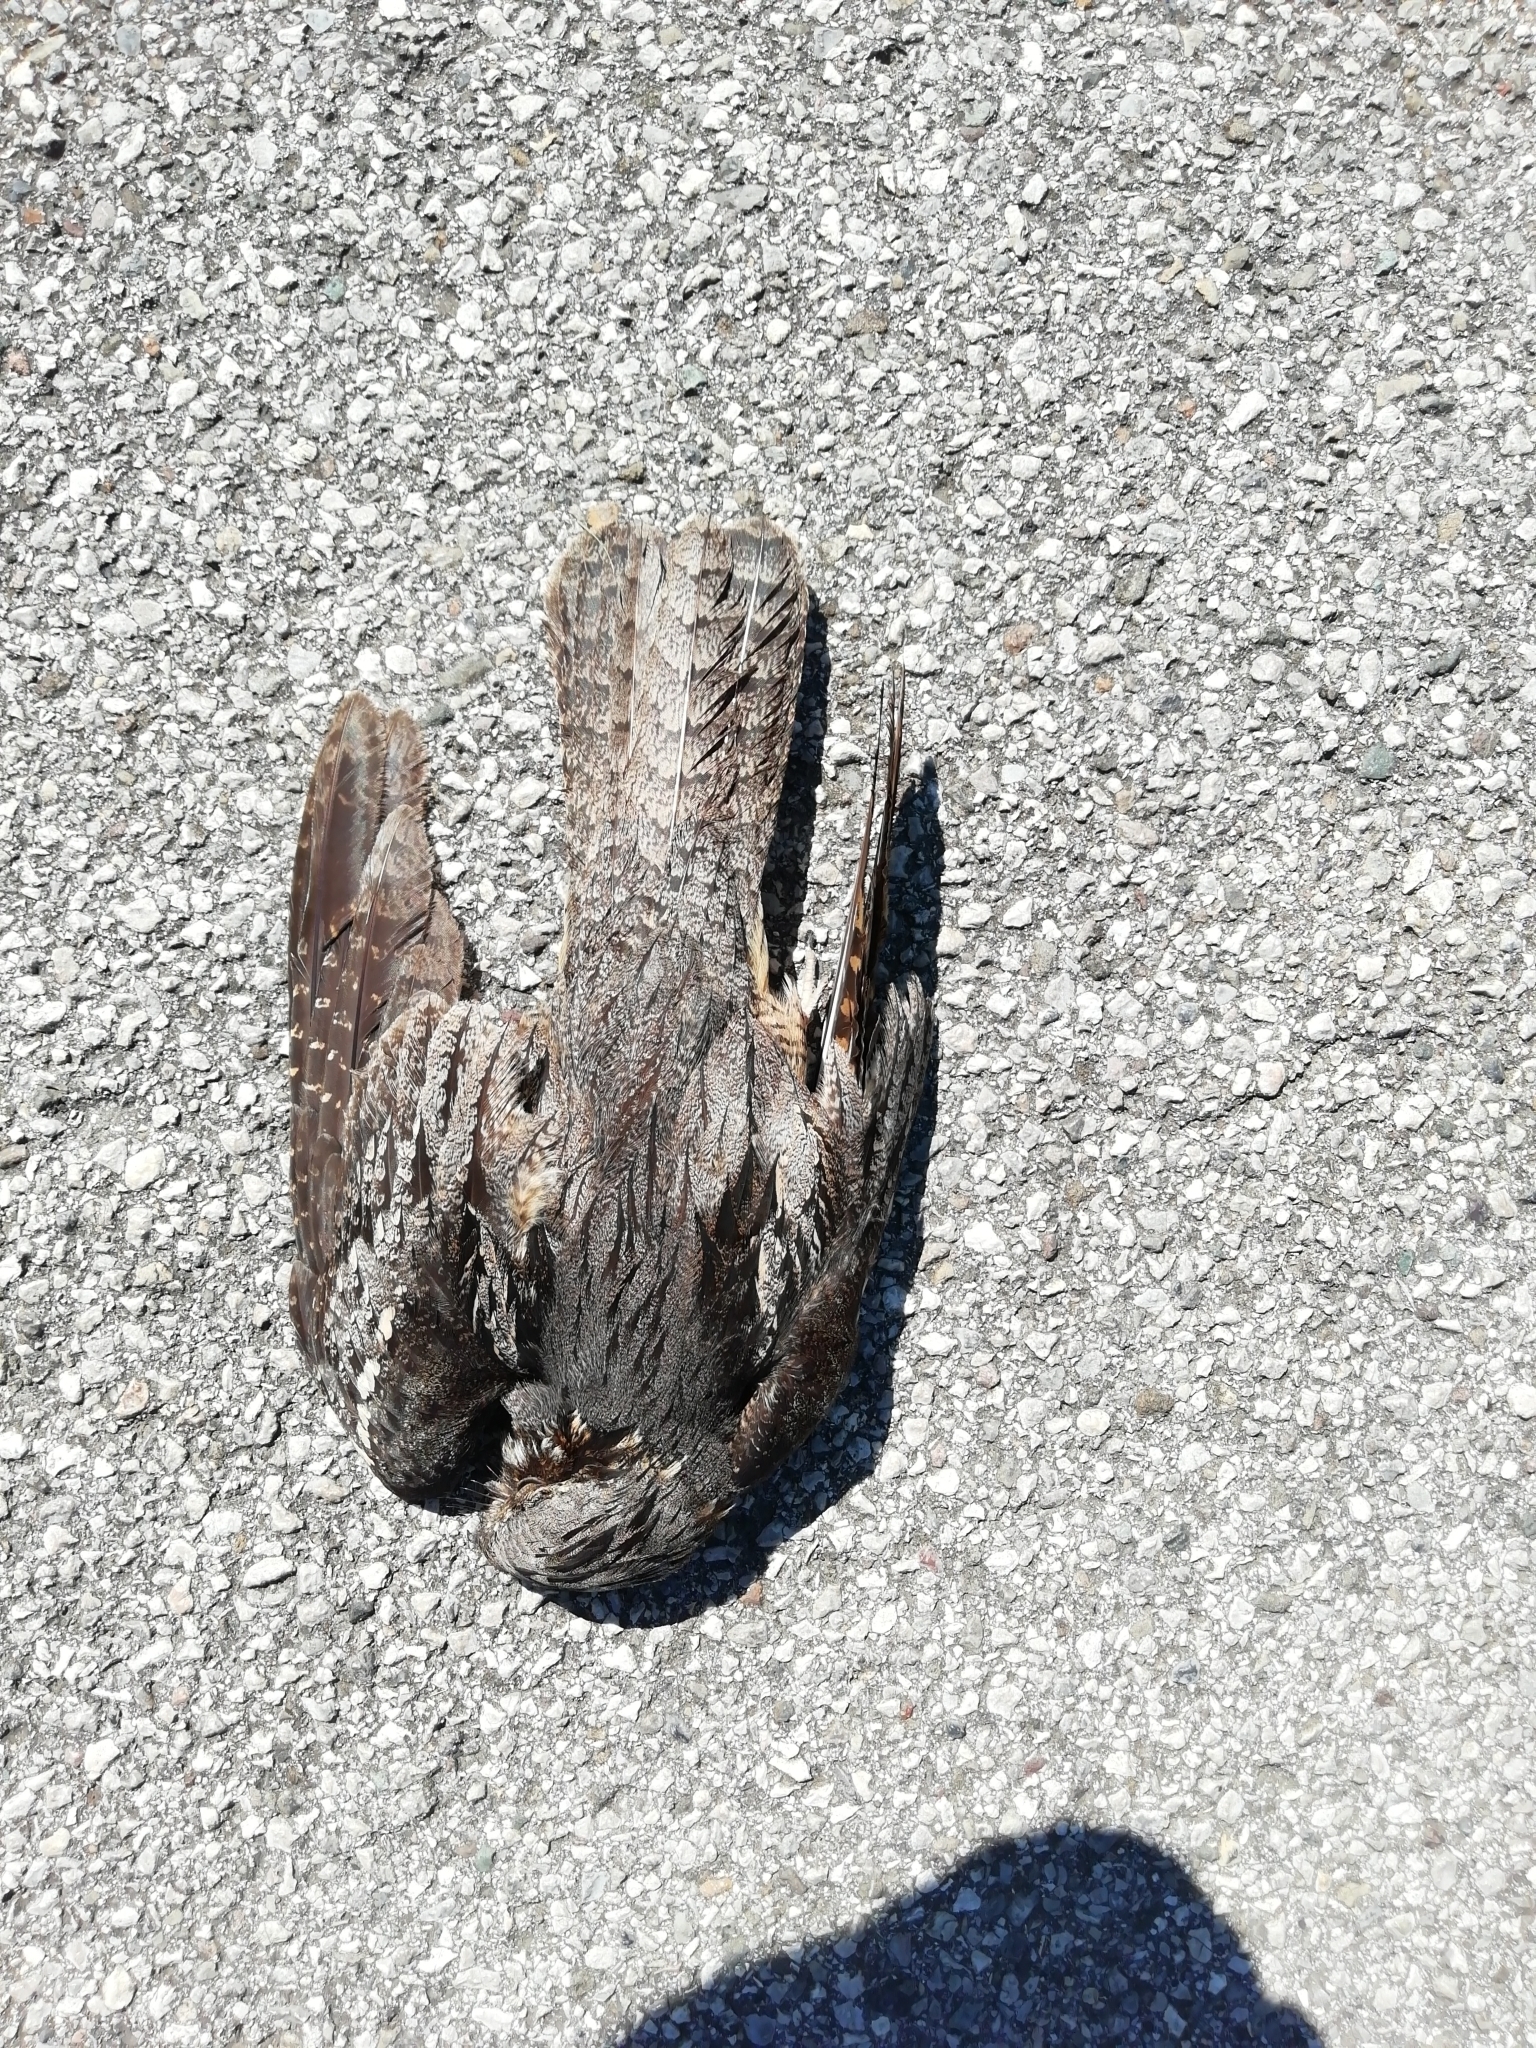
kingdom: Animalia
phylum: Chordata
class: Aves
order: Caprimulgiformes
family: Caprimulgidae
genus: Caprimulgus
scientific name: Caprimulgus europaeus
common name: European nightjar
